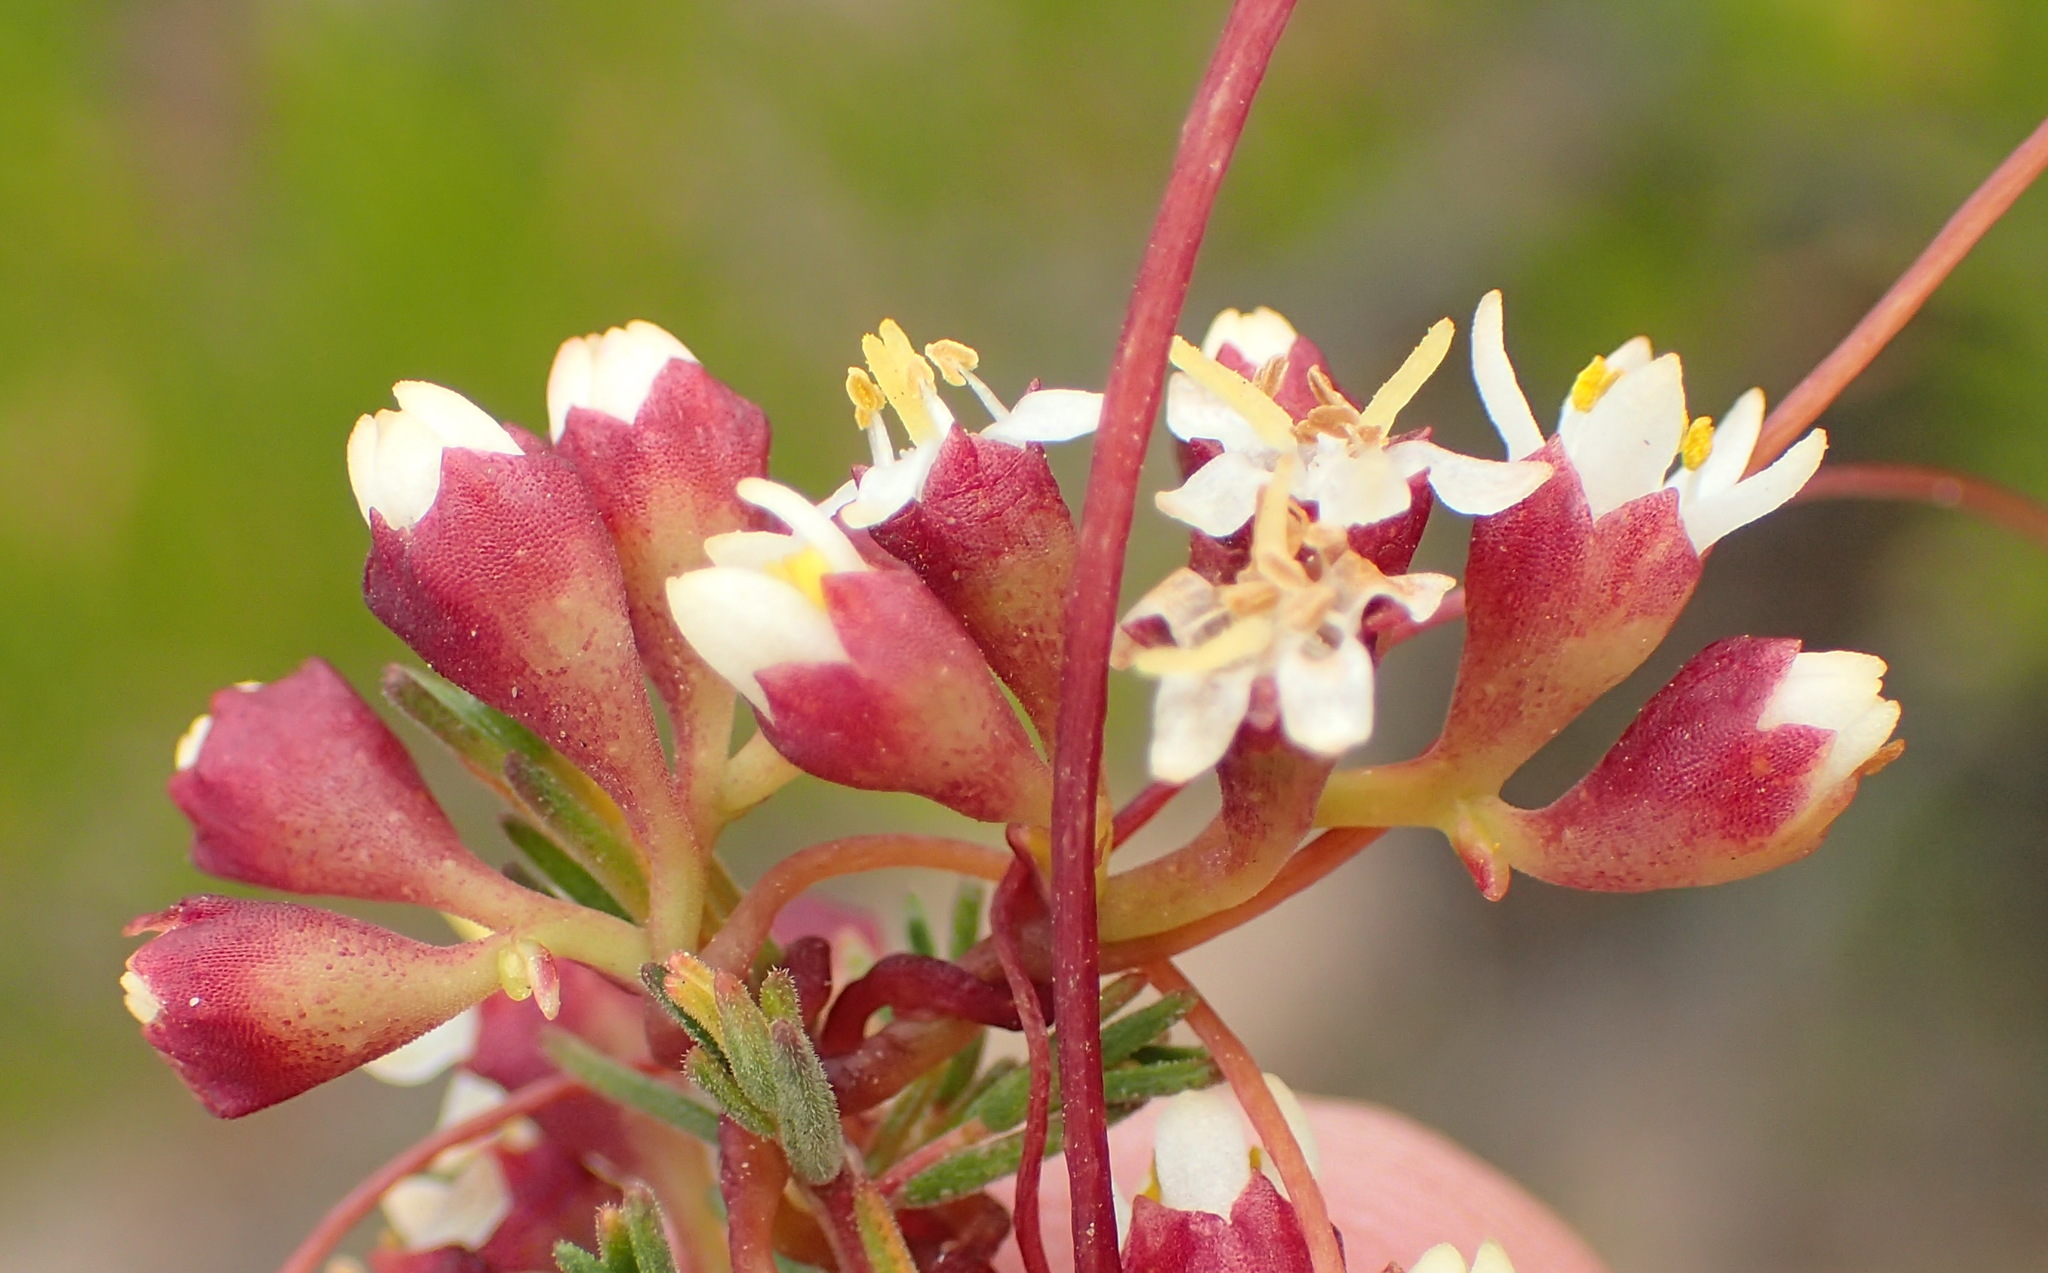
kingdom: Plantae
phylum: Tracheophyta
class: Magnoliopsida
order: Solanales
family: Convolvulaceae
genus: Cuscuta
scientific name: Cuscuta nitida
